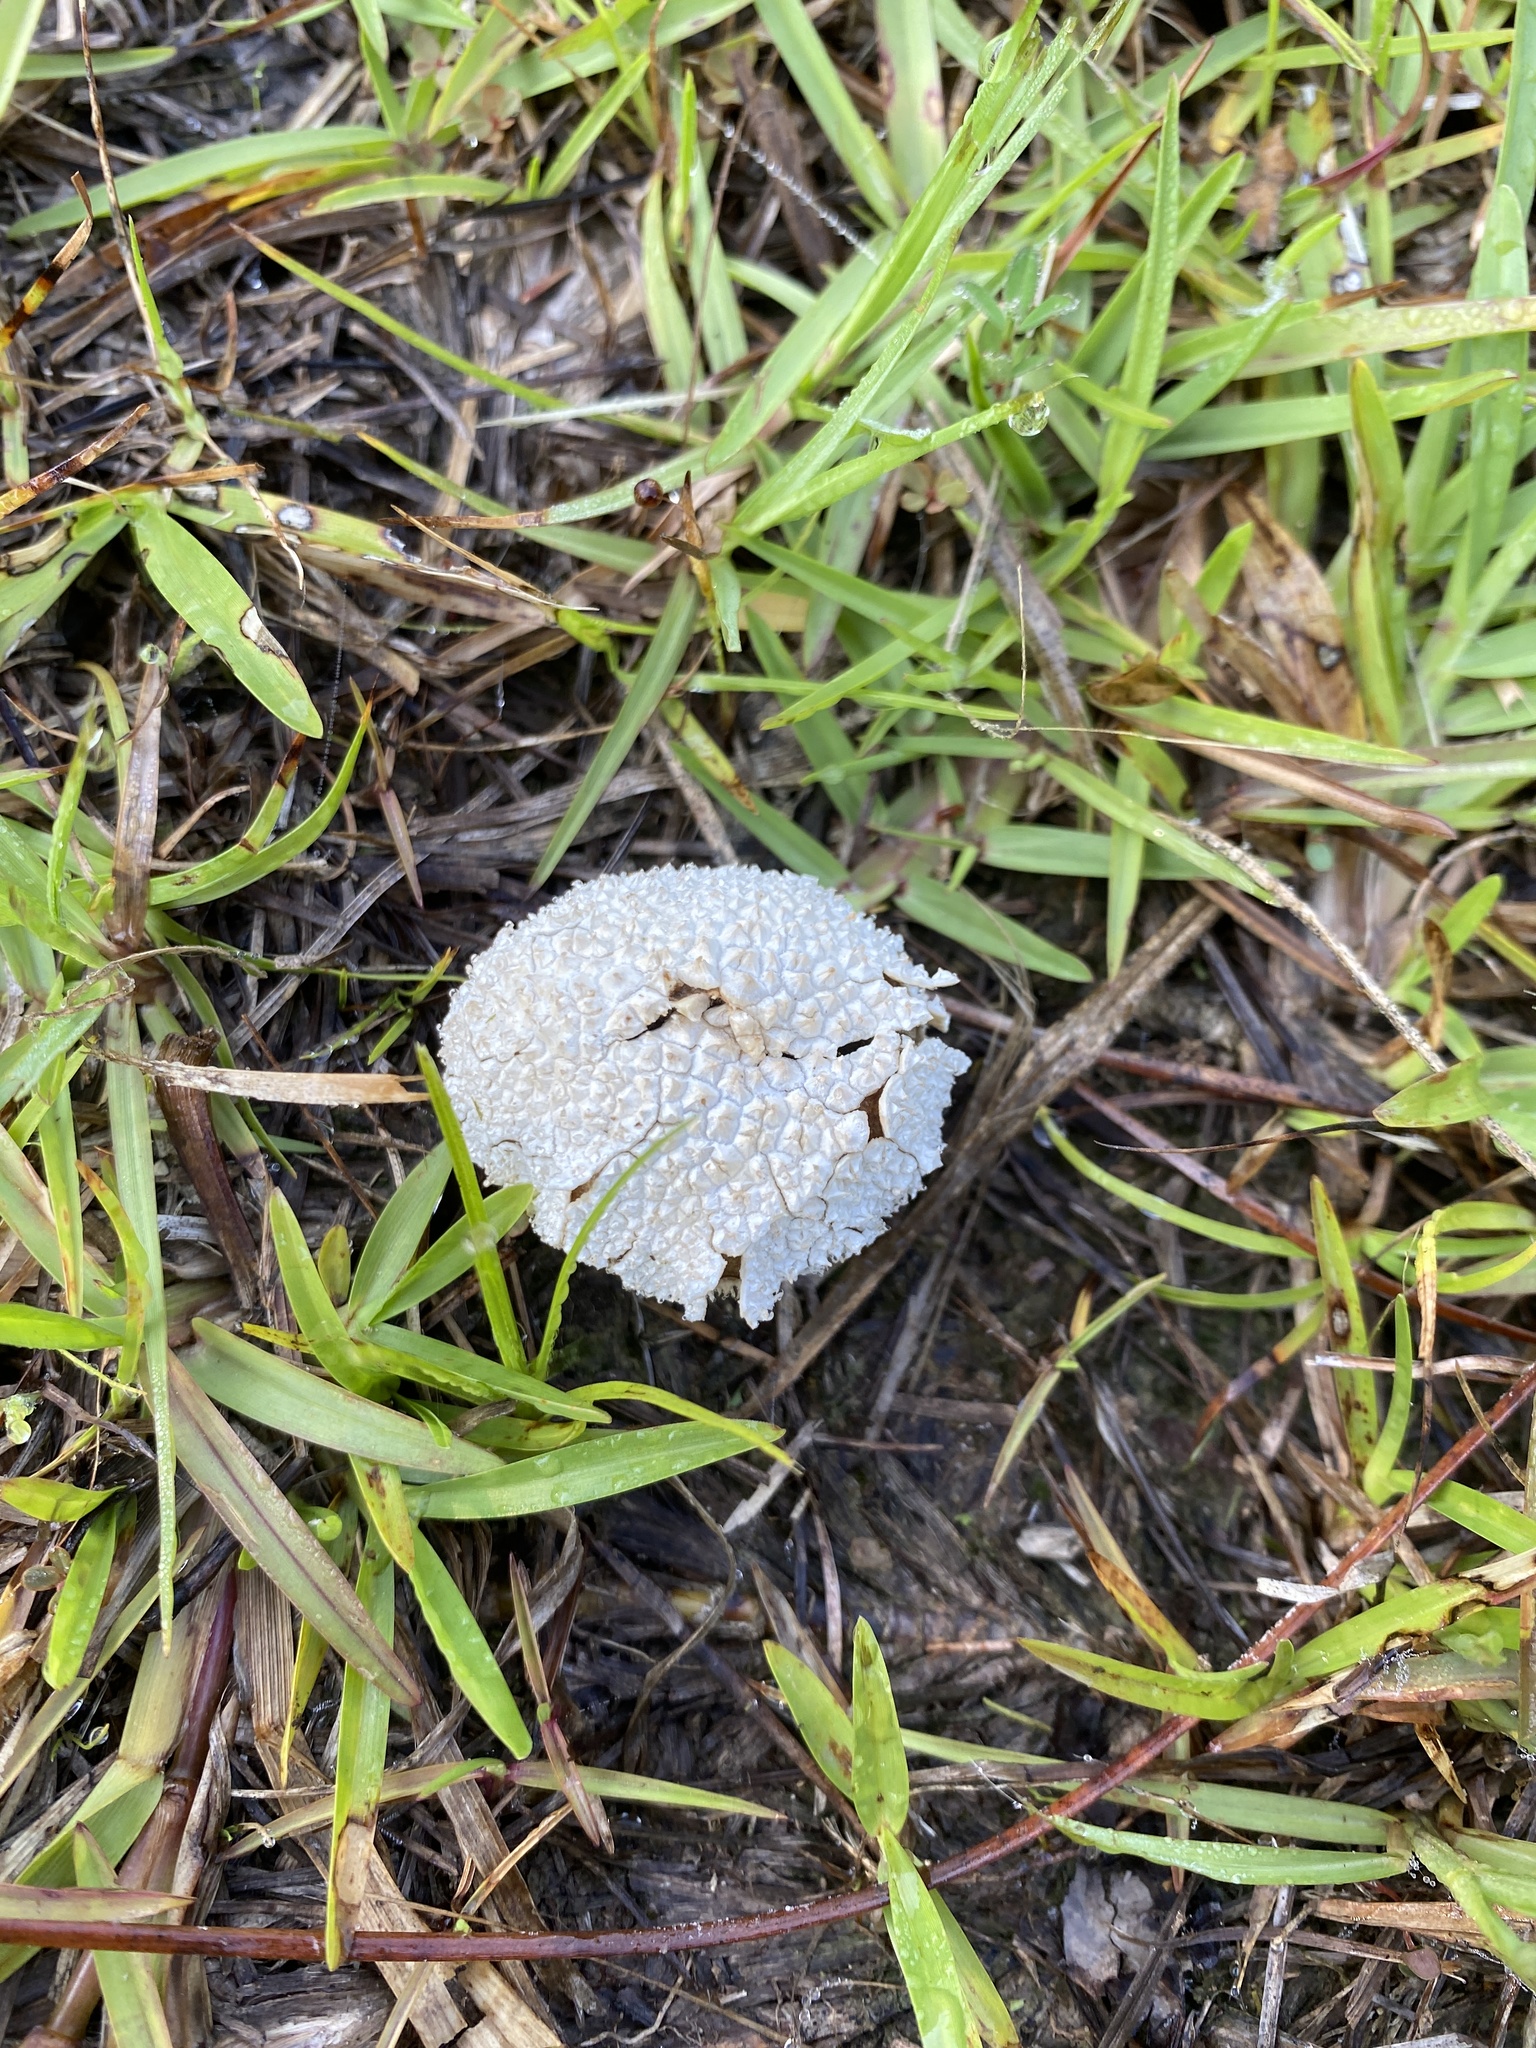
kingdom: Fungi
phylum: Basidiomycota
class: Agaricomycetes
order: Agaricales
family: Agaricaceae
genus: Lycoperdon
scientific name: Lycoperdon marginatum
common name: Peeling puffball
